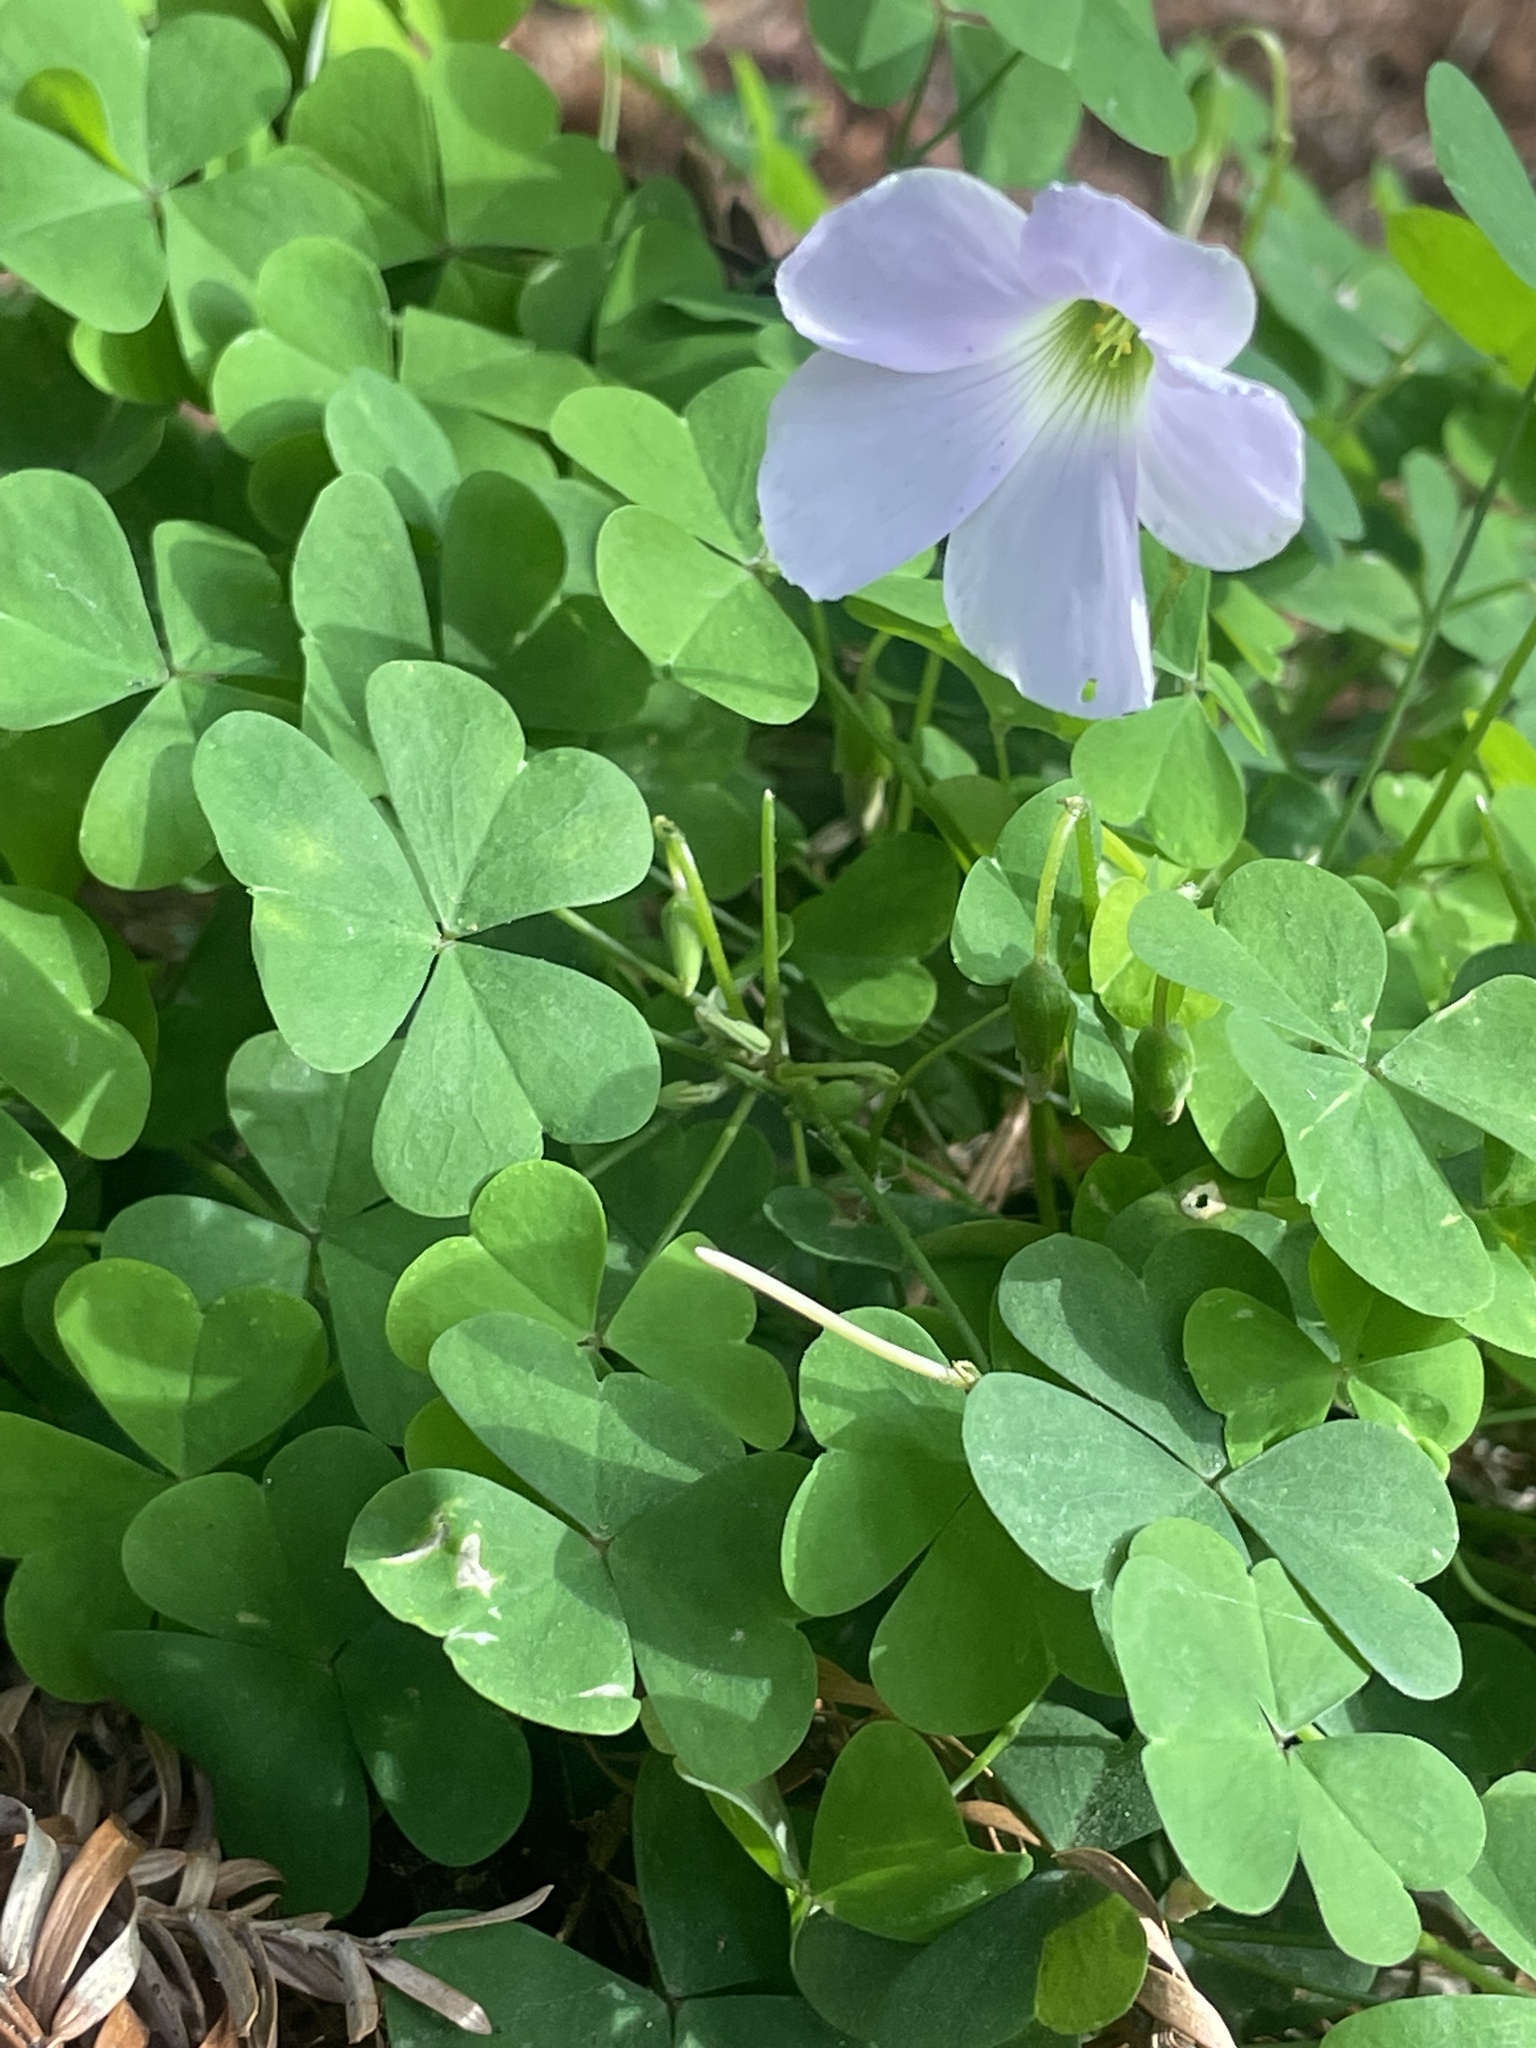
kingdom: Plantae
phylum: Tracheophyta
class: Magnoliopsida
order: Oxalidales
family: Oxalidaceae
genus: Oxalis
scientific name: Oxalis incarnata
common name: Pale pink-sorrel
